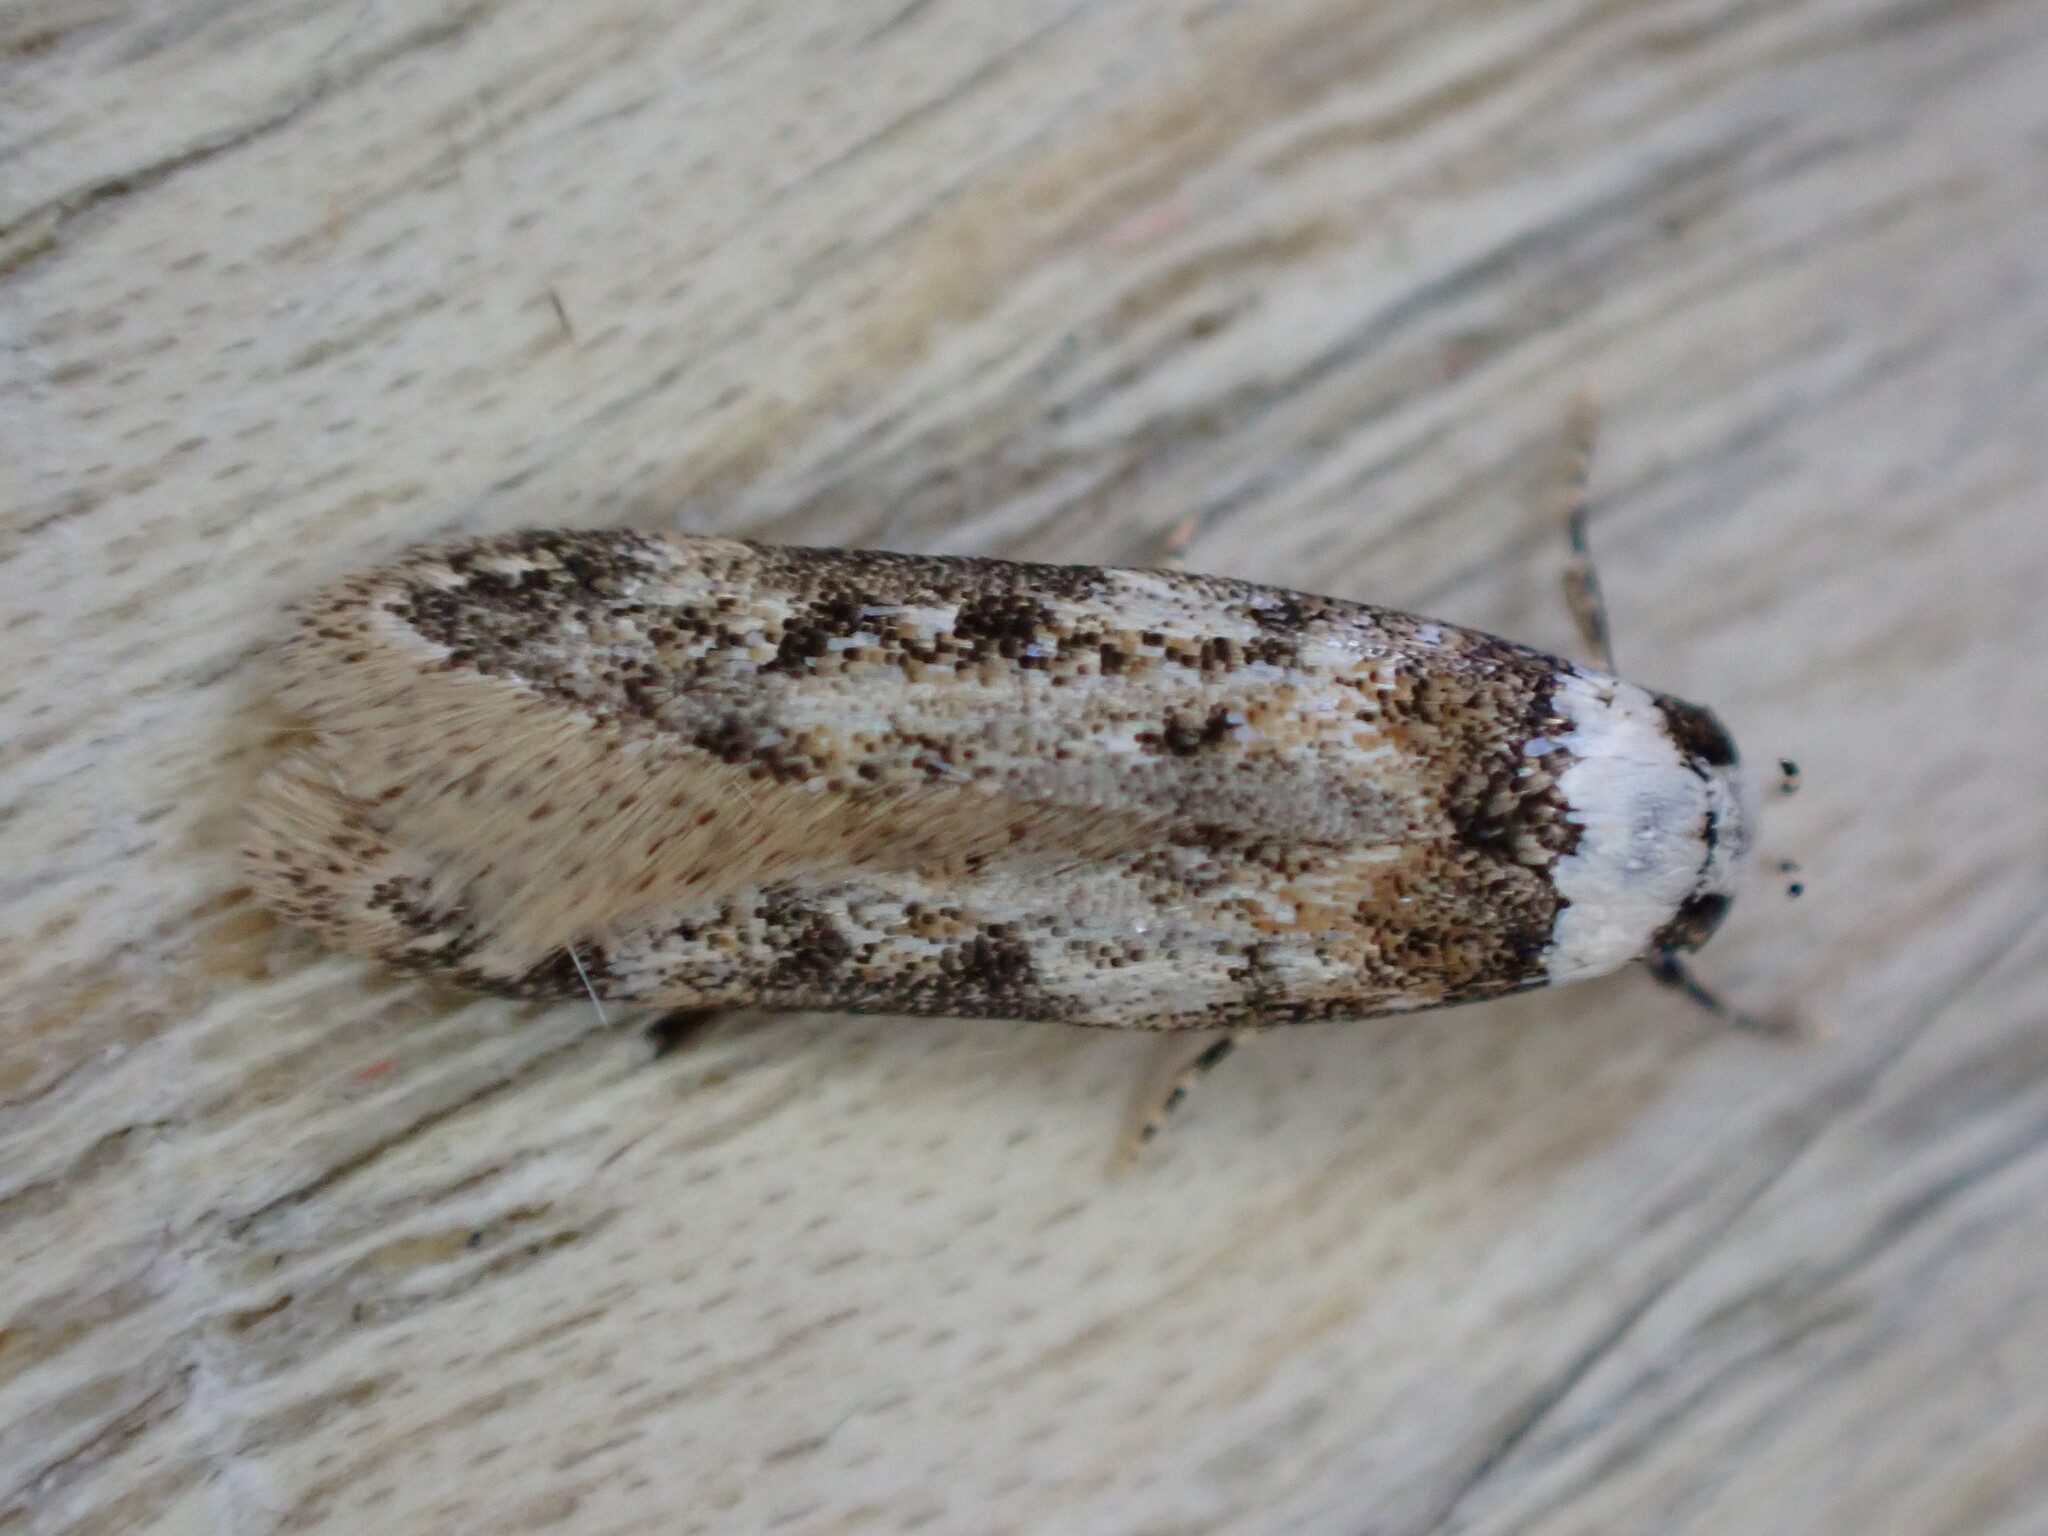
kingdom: Animalia
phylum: Arthropoda
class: Insecta
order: Lepidoptera
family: Oecophoridae
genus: Endrosis
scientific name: Endrosis sarcitrella
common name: White-shouldered house moth
